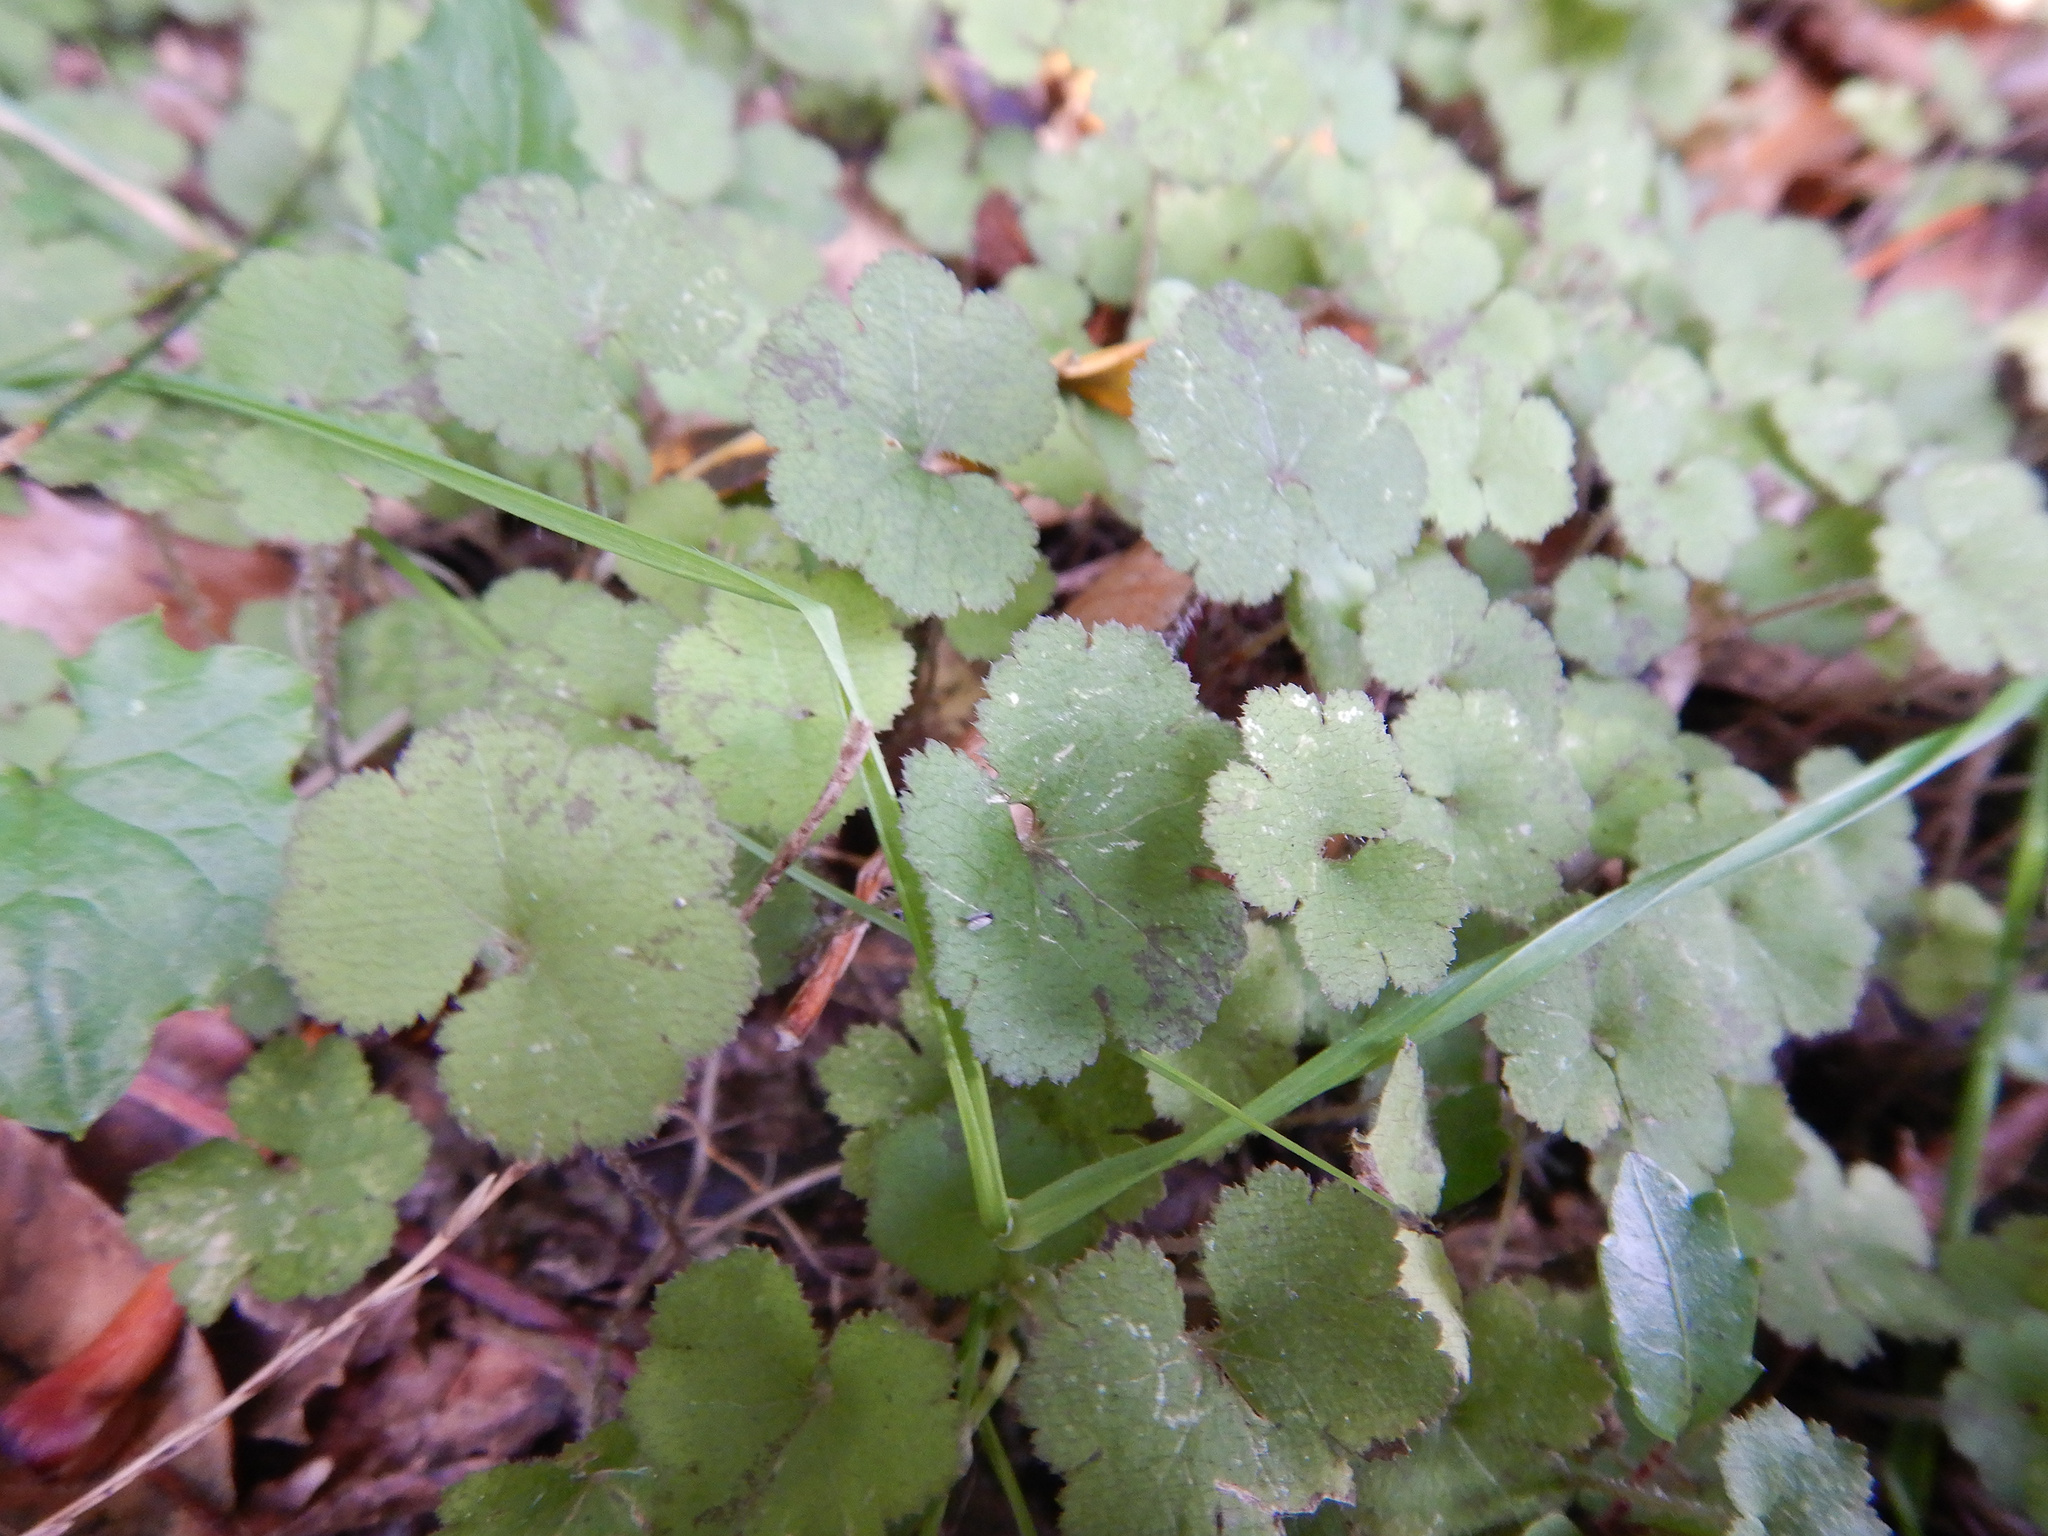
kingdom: Plantae
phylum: Tracheophyta
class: Magnoliopsida
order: Apiales
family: Araliaceae
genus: Hydrocotyle
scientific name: Hydrocotyle elongata
